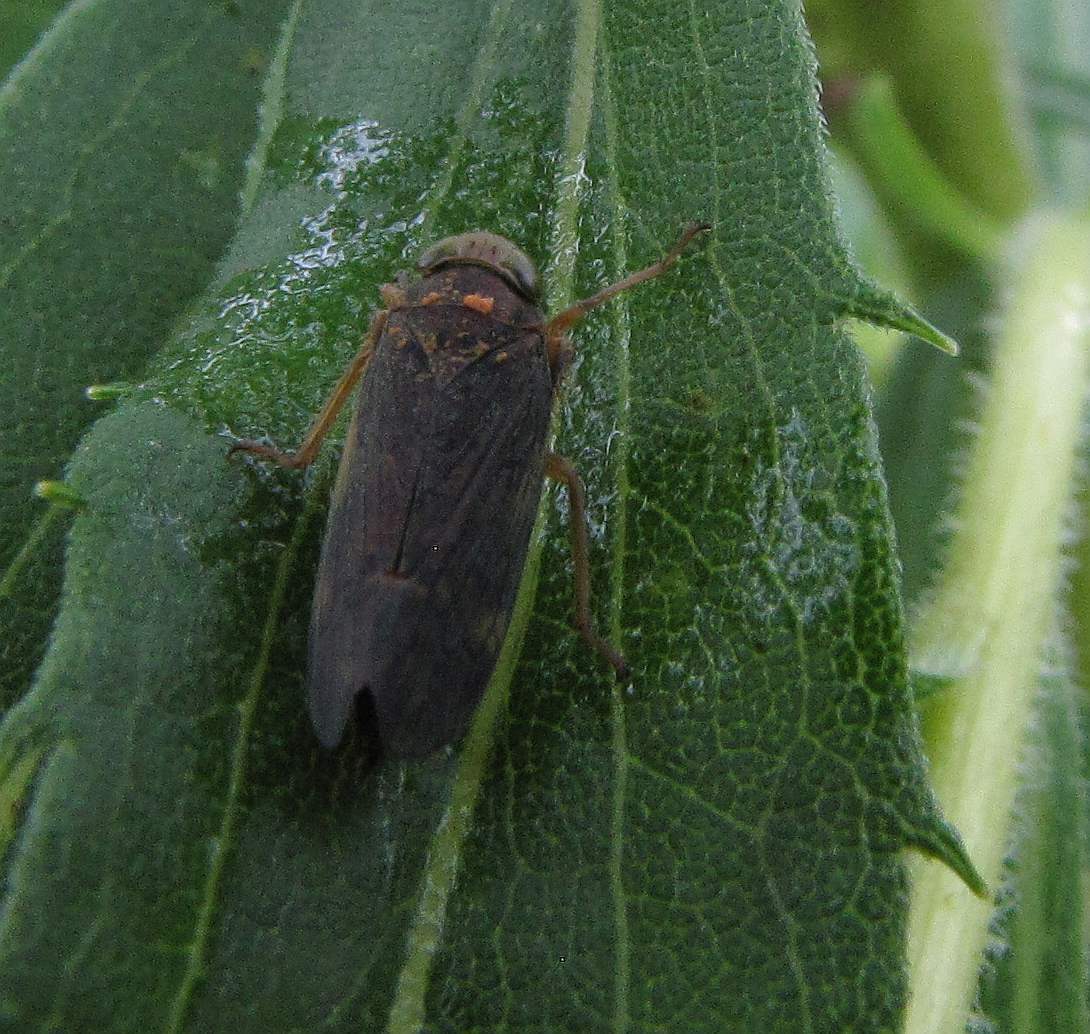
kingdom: Animalia
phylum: Arthropoda
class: Insecta
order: Hemiptera
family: Cicadellidae
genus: Jikradia
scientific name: Jikradia olitoria
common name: Coppery leafhopper
